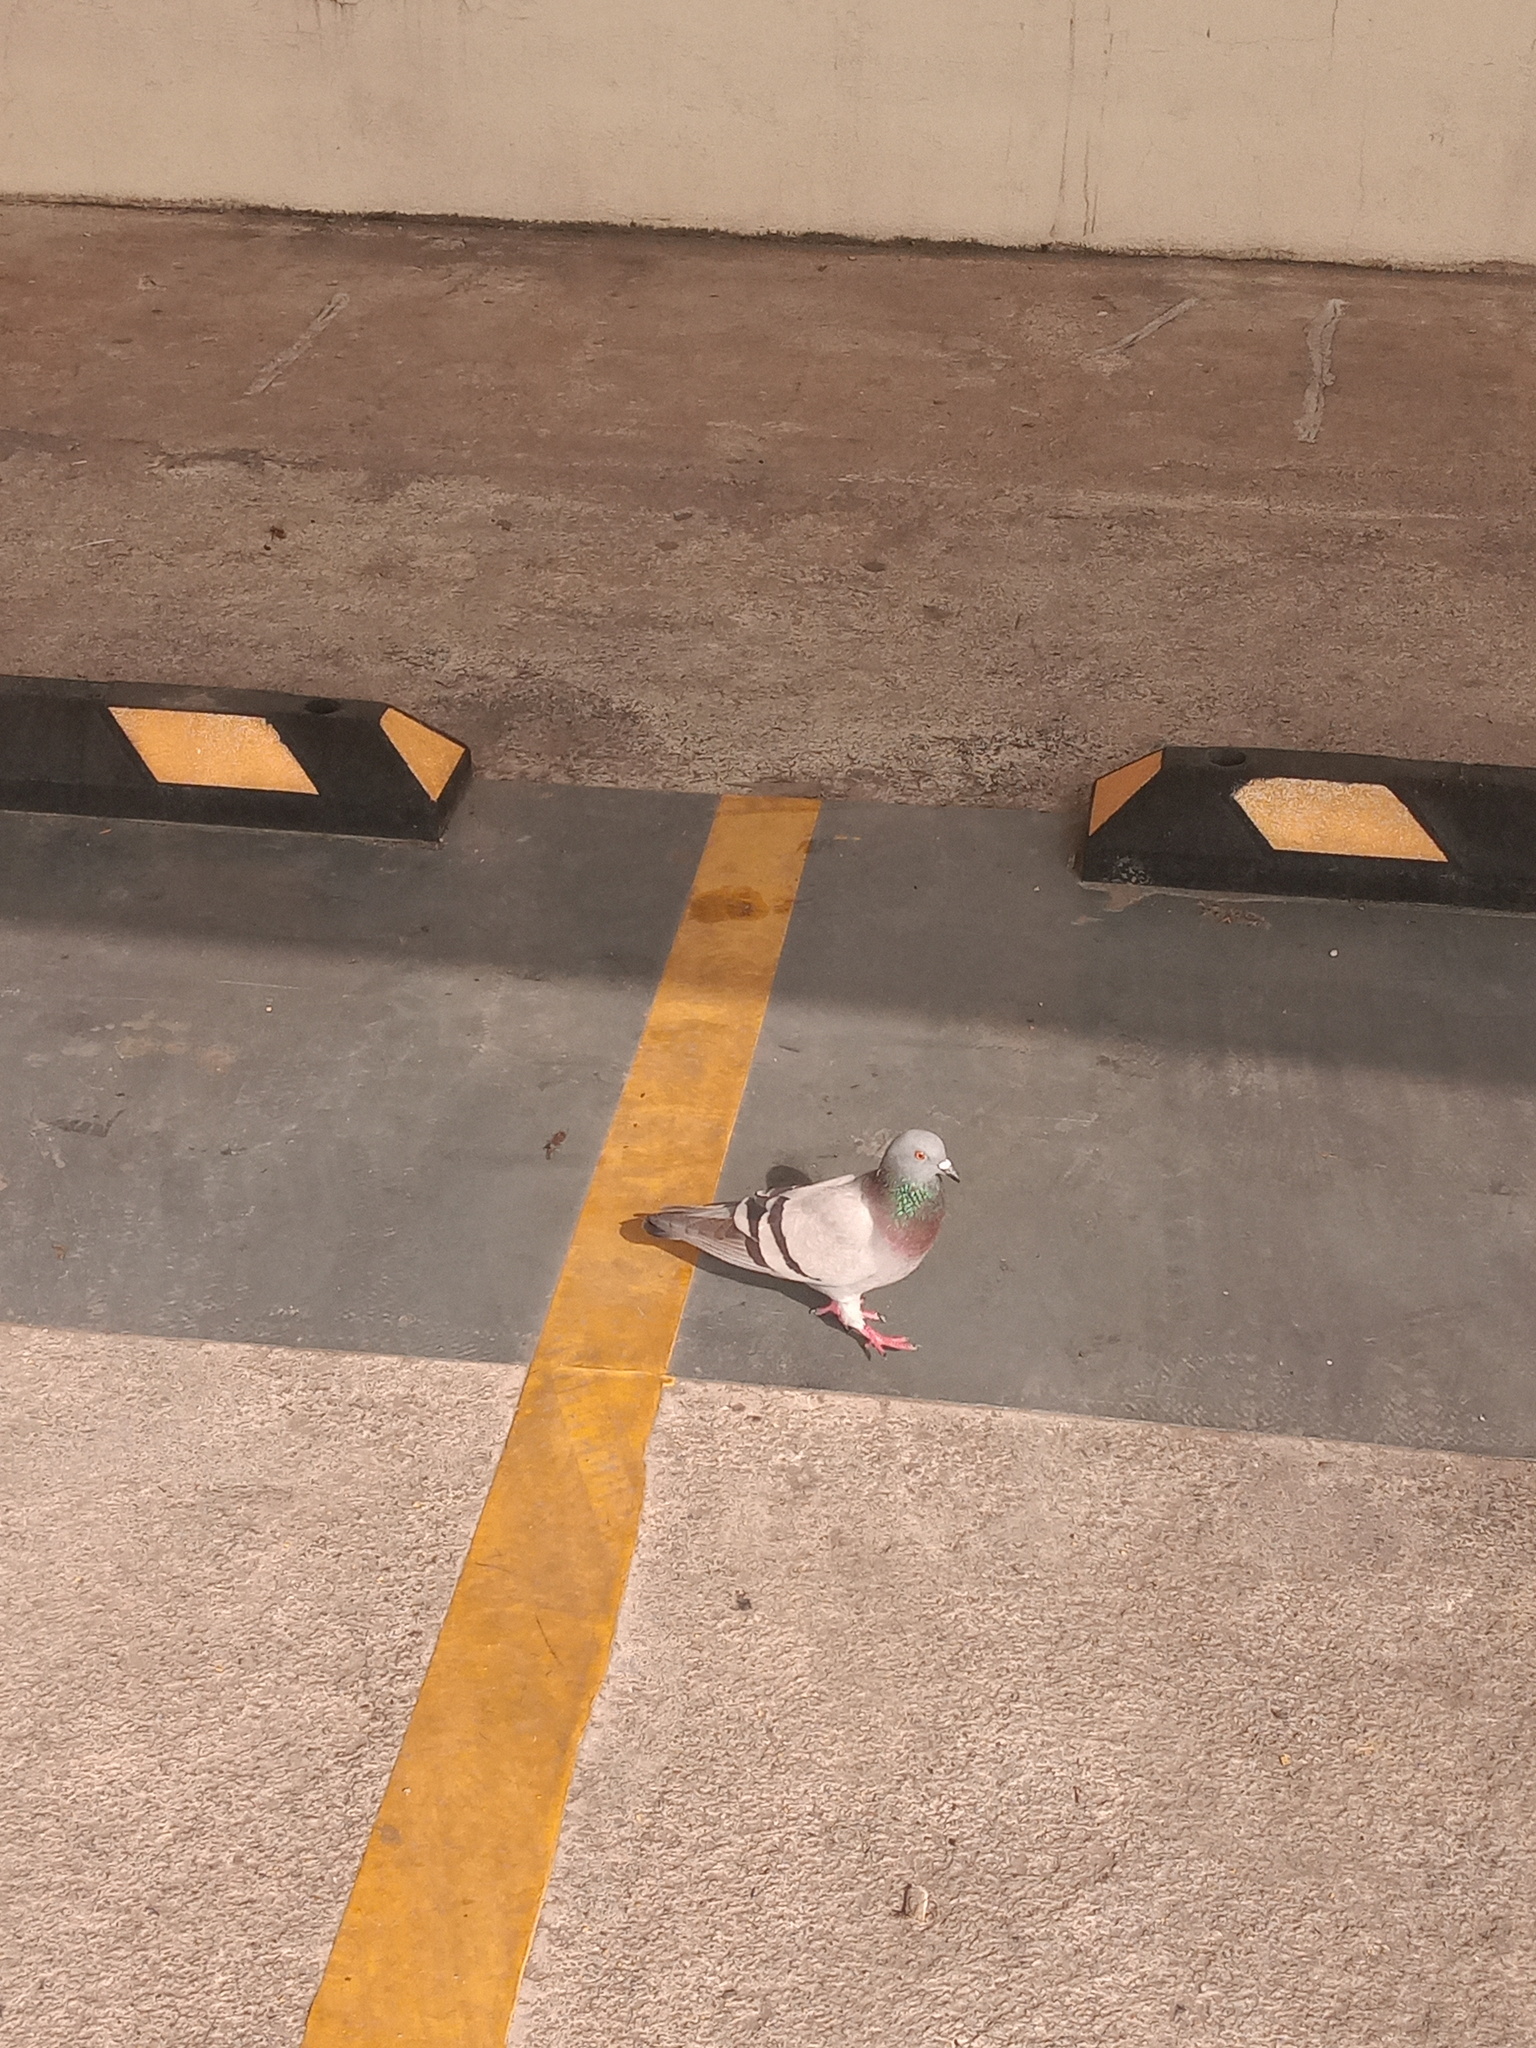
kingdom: Animalia
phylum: Chordata
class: Aves
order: Columbiformes
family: Columbidae
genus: Columba
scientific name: Columba livia
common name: Rock pigeon
